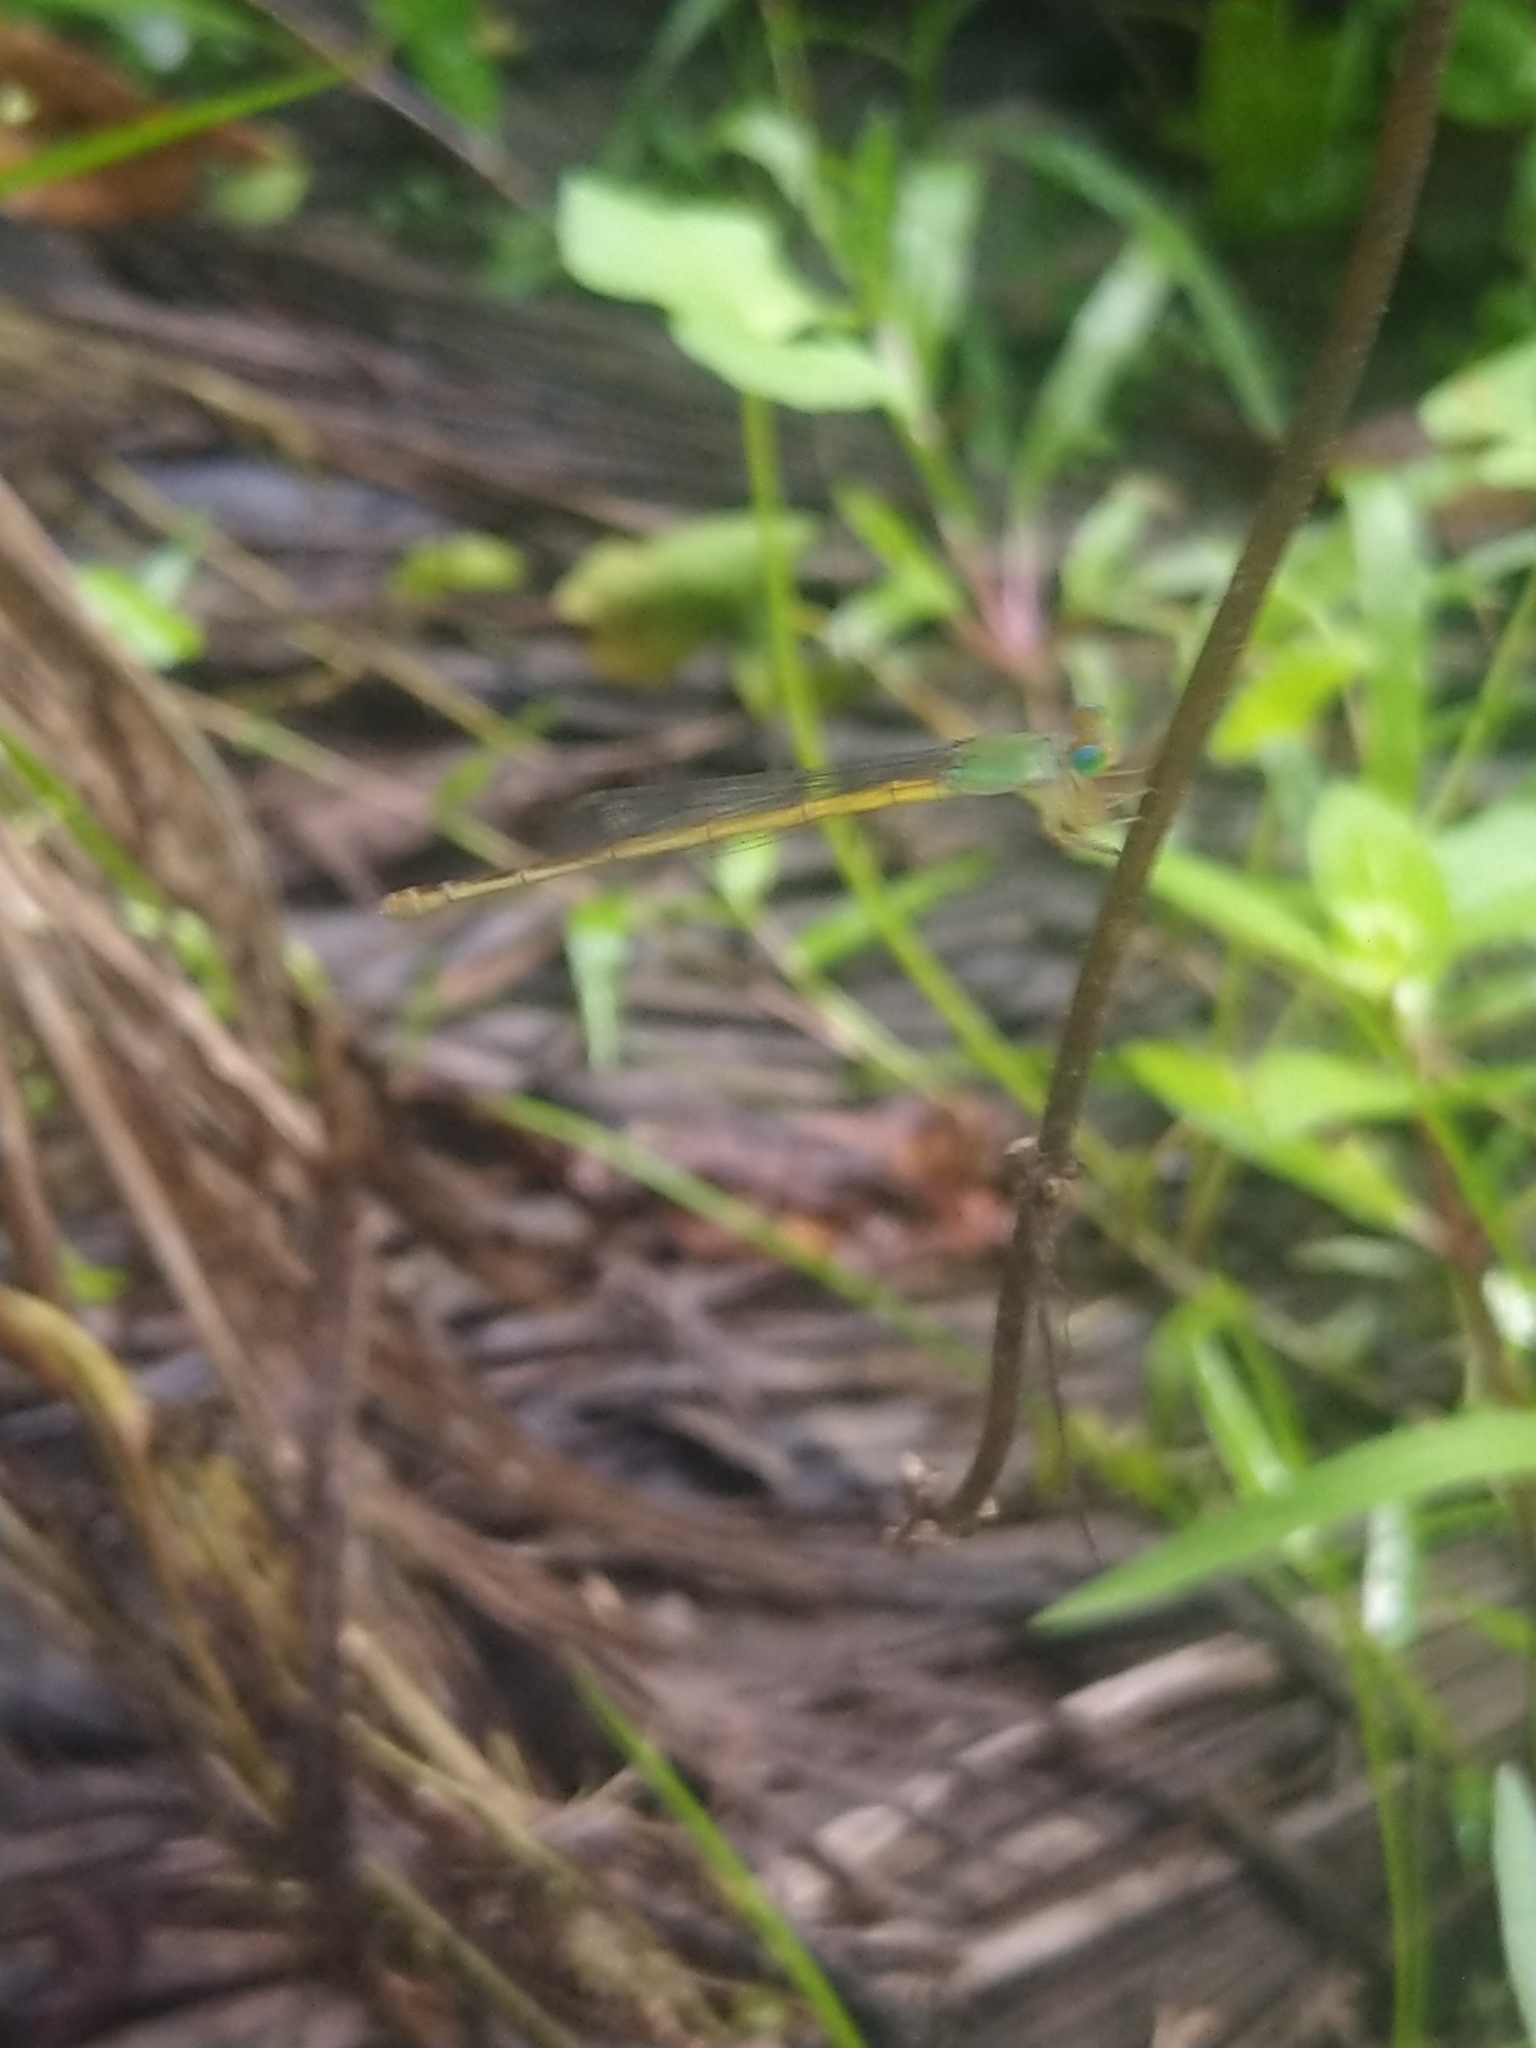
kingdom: Animalia
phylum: Arthropoda
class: Insecta
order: Odonata
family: Coenagrionidae
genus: Ceriagrion
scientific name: Ceriagrion coromandelianum
